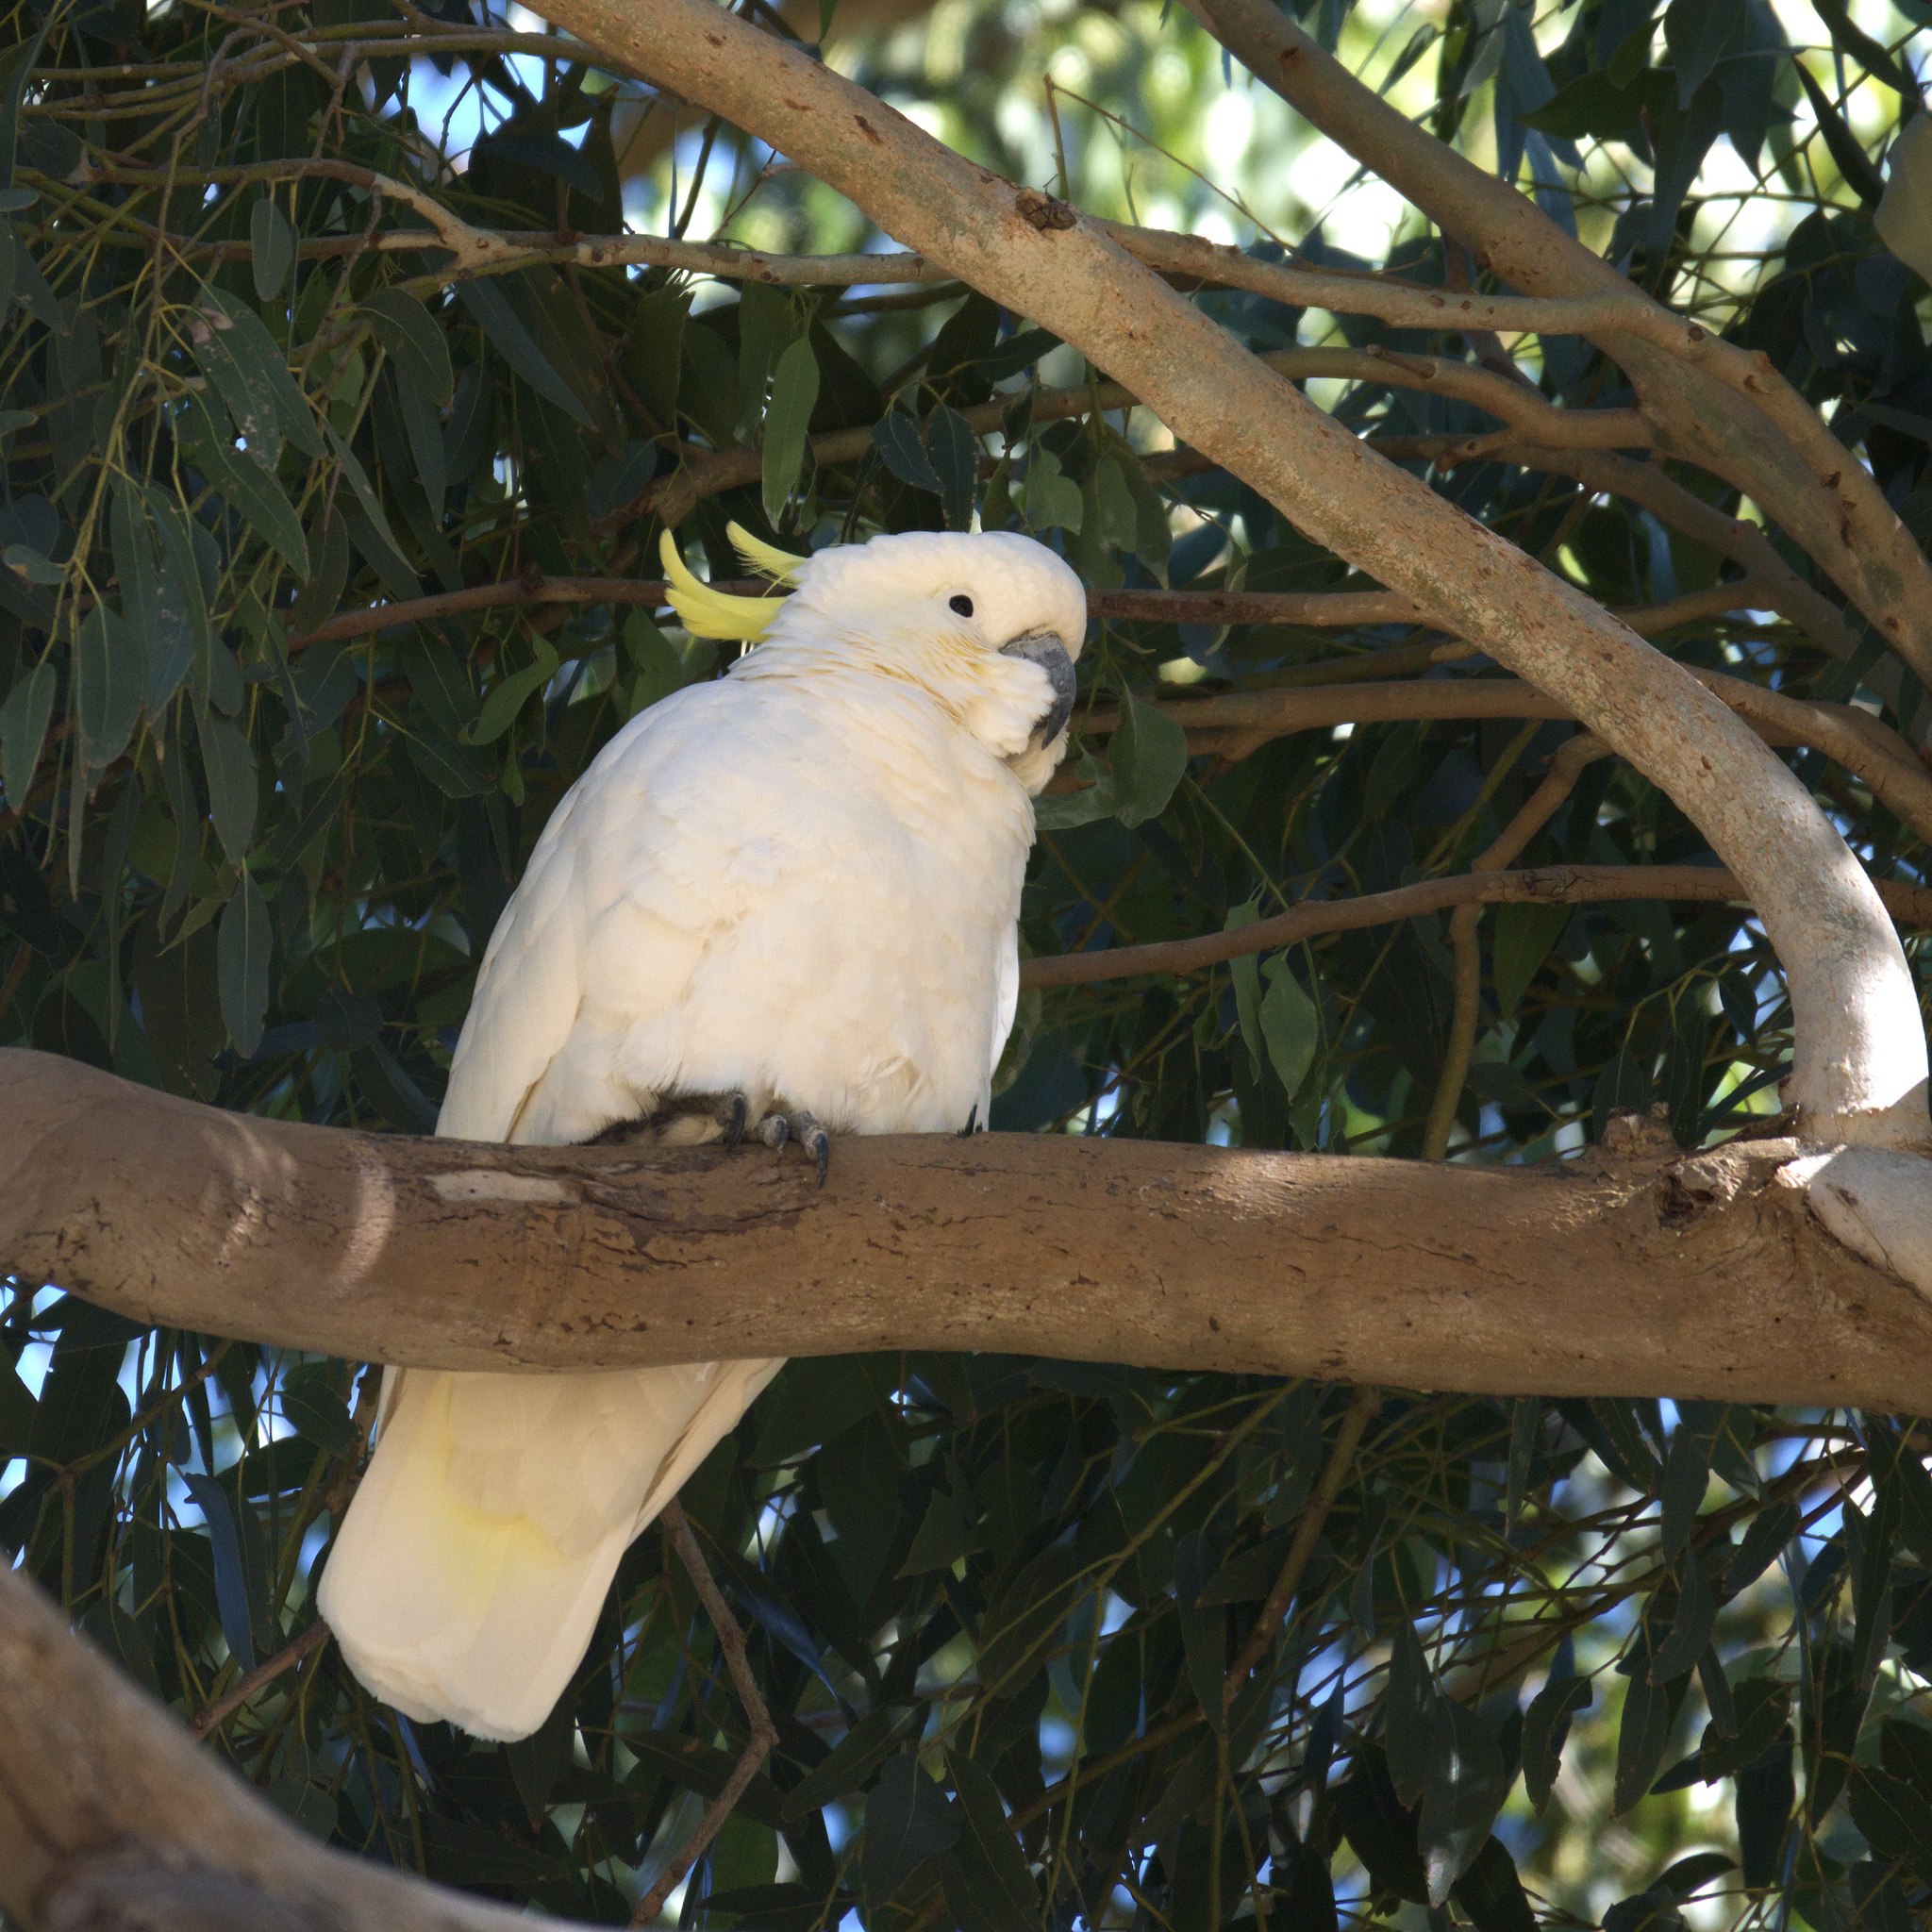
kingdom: Animalia
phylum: Chordata
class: Aves
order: Psittaciformes
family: Psittacidae
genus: Cacatua
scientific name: Cacatua galerita
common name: Sulphur-crested cockatoo
